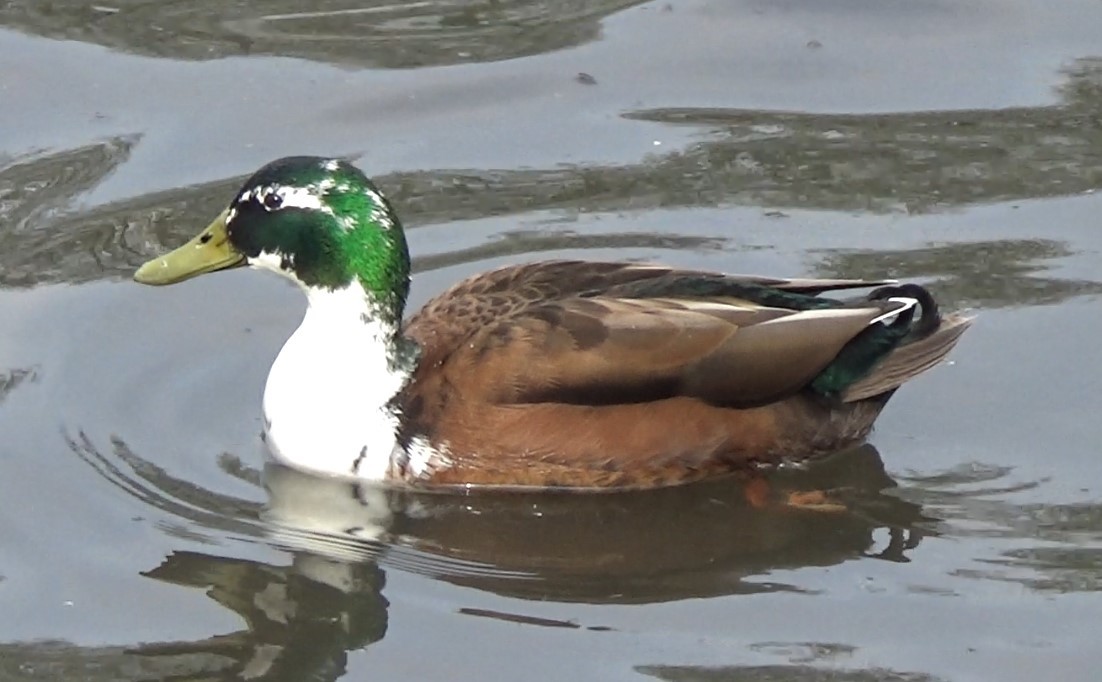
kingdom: Animalia
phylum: Chordata
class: Aves
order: Anseriformes
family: Anatidae
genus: Anas
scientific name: Anas platyrhynchos
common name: Mallard
